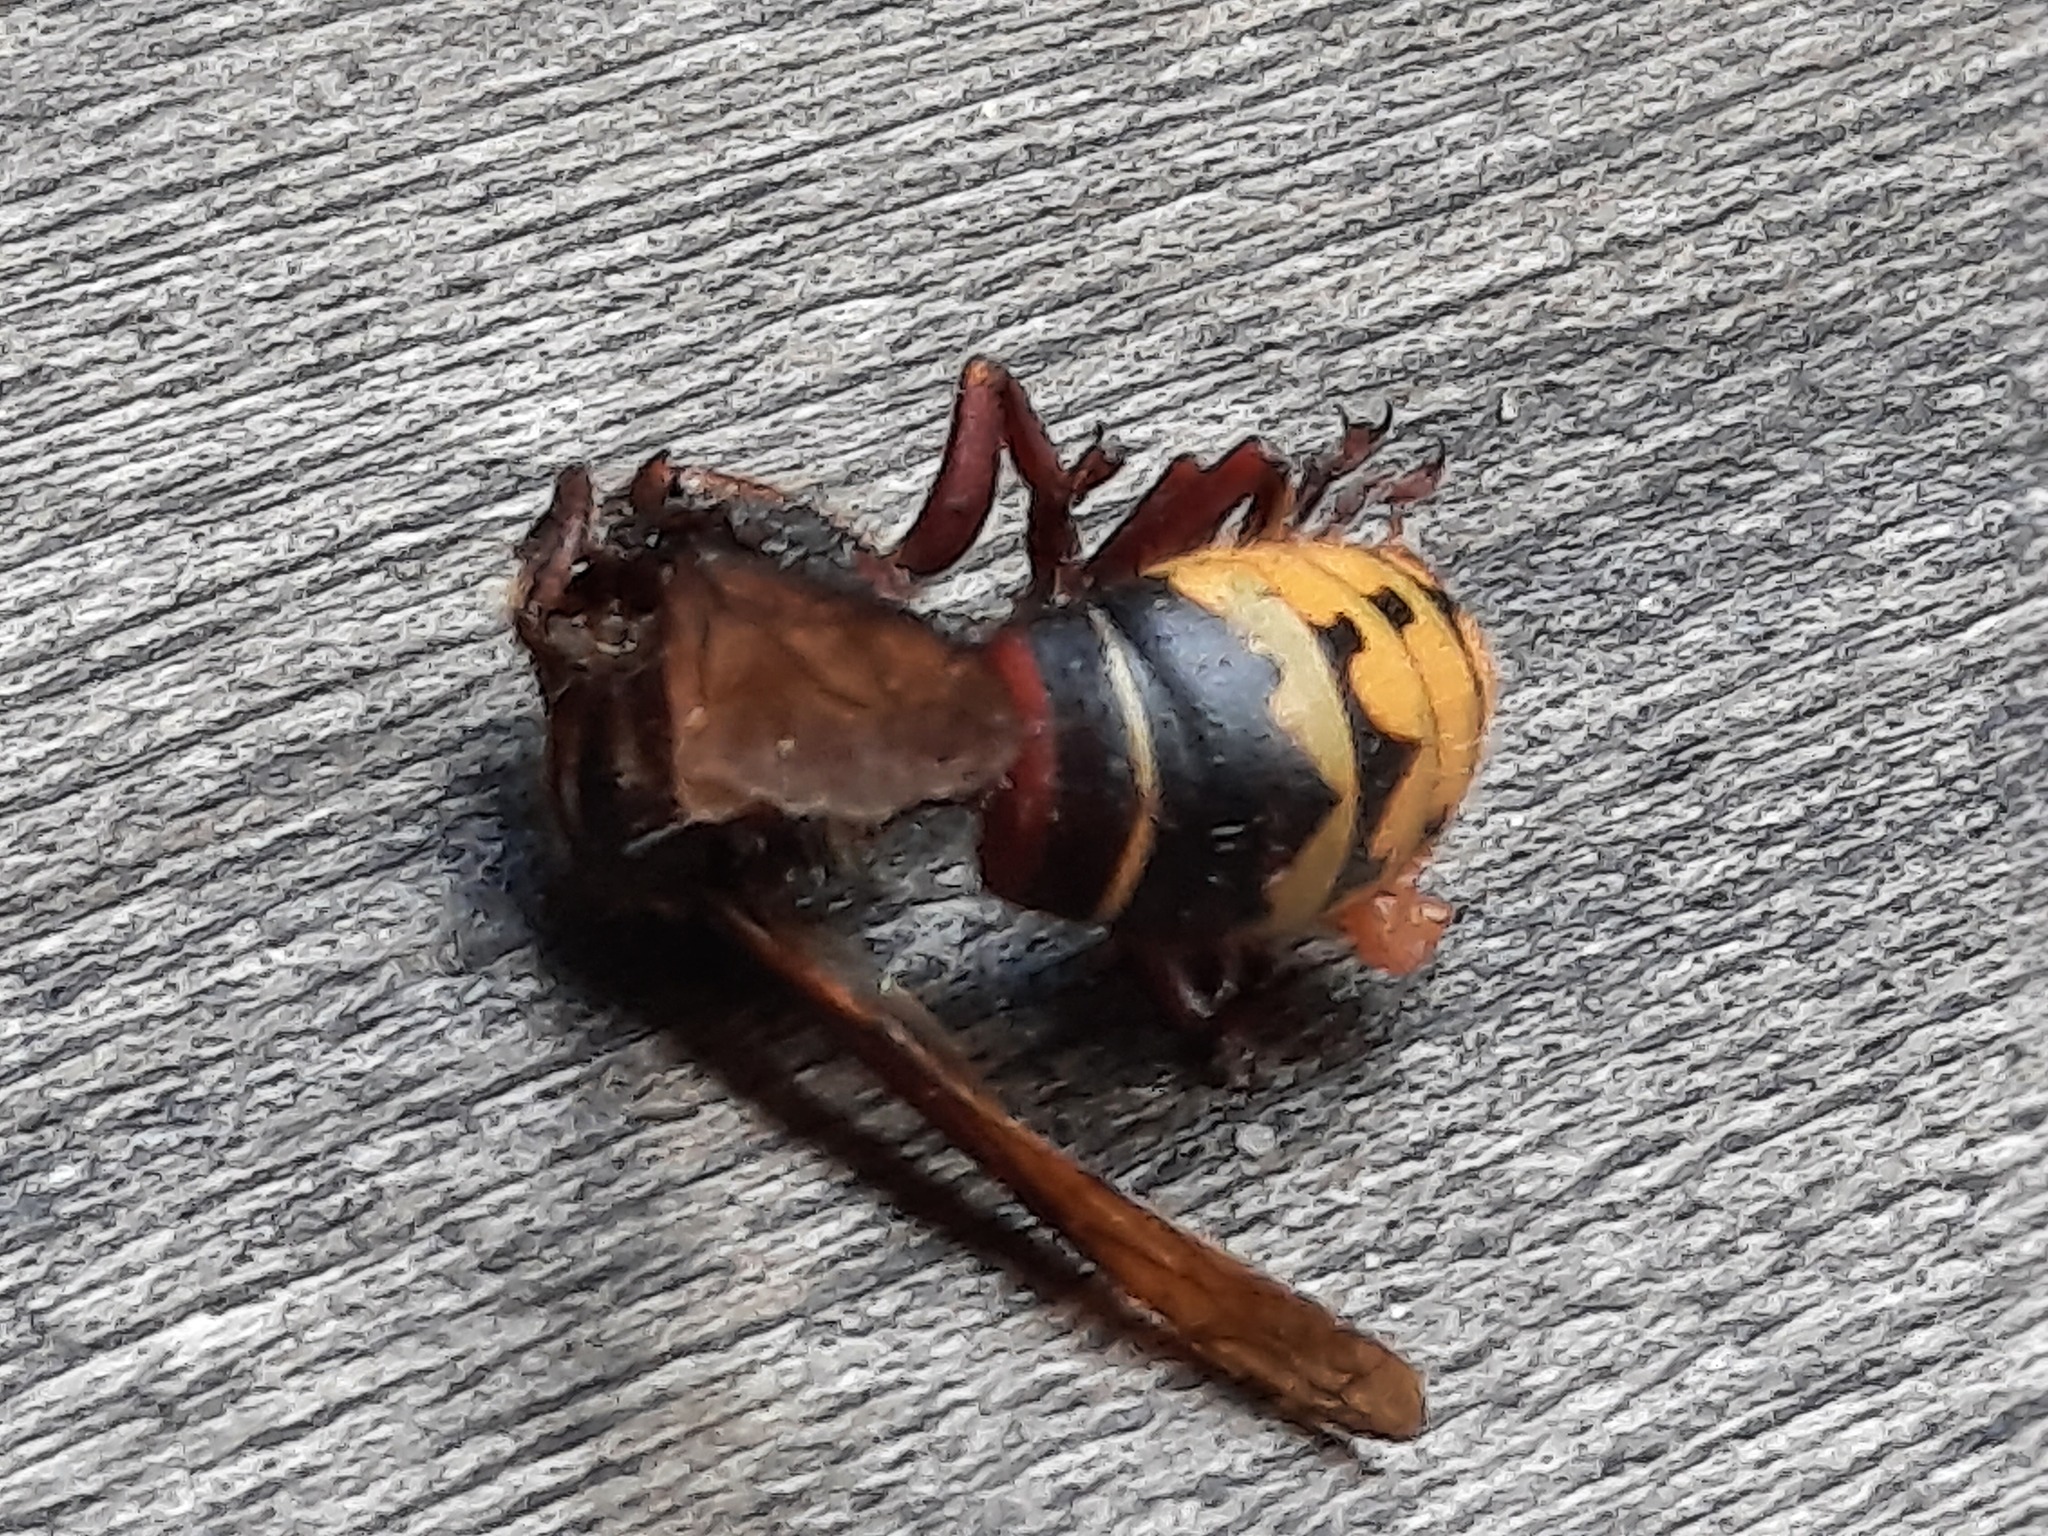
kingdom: Animalia
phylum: Arthropoda
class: Insecta
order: Hymenoptera
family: Vespidae
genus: Vespa
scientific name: Vespa crabro
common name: Hornet
